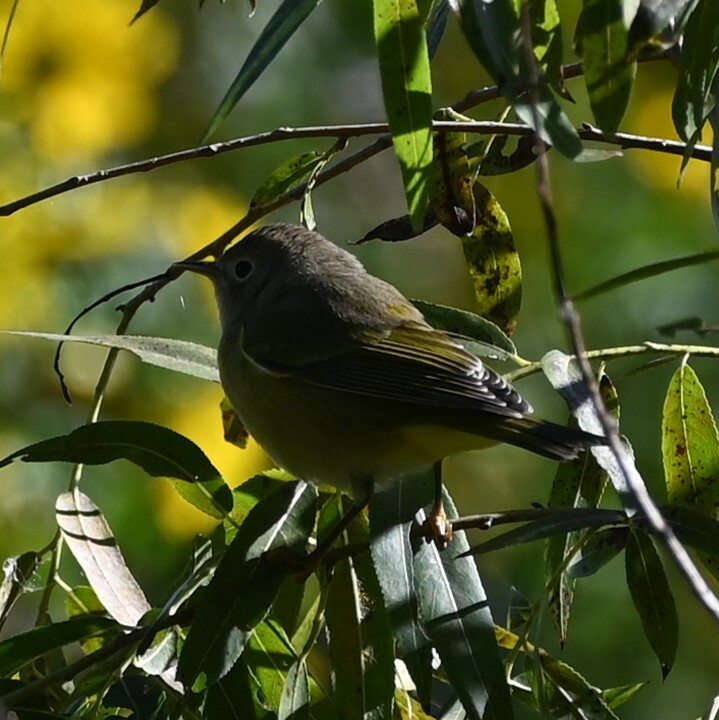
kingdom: Animalia
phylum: Chordata
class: Aves
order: Passeriformes
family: Parulidae
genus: Leiothlypis
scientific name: Leiothlypis ruficapilla
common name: Nashville warbler
